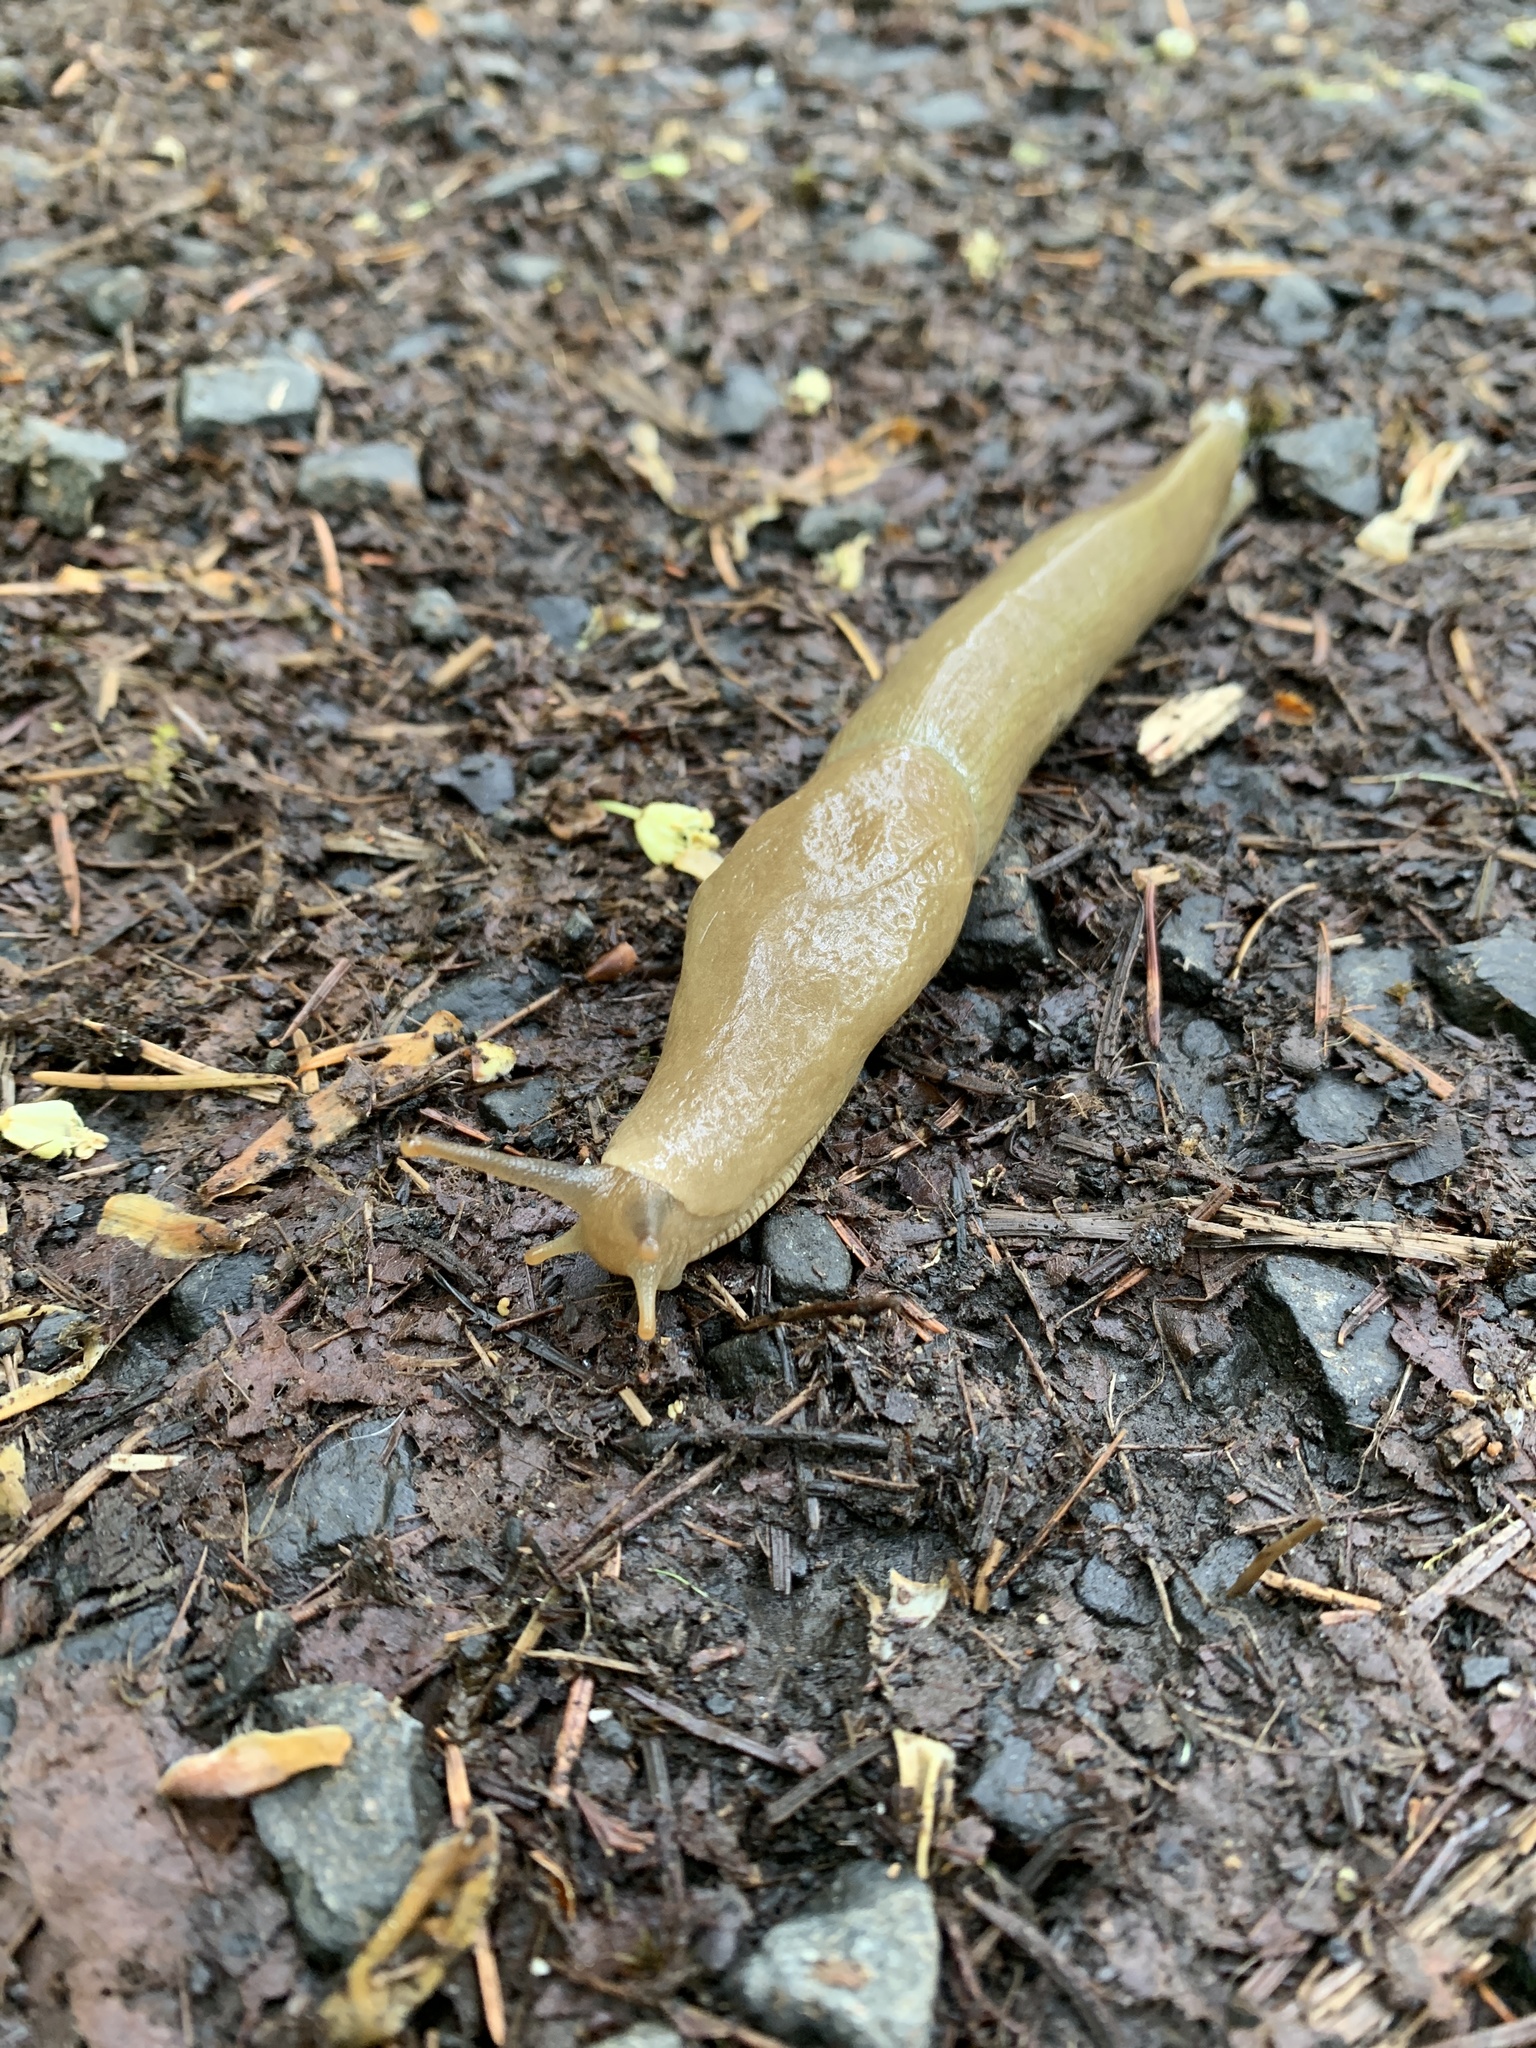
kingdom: Animalia
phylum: Mollusca
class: Gastropoda
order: Stylommatophora
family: Ariolimacidae
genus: Ariolimax
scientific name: Ariolimax columbianus
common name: Pacific banana slug
